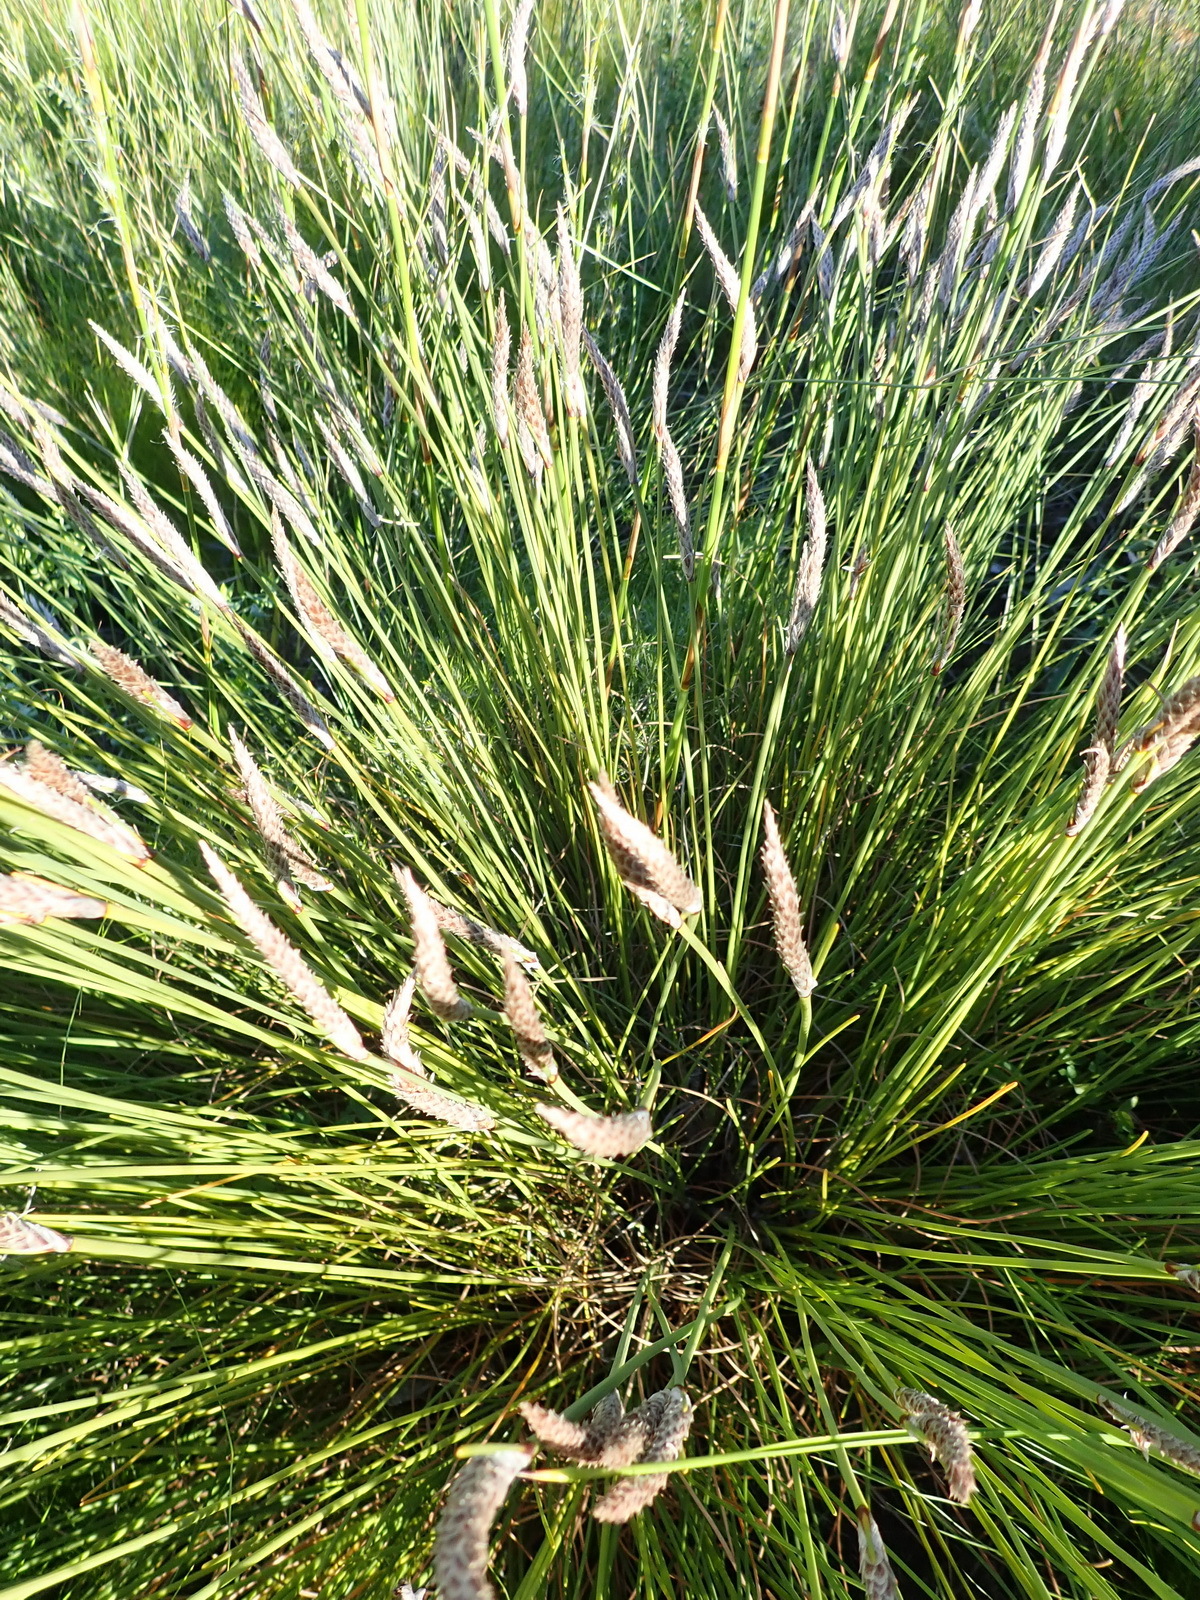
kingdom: Plantae
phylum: Tracheophyta
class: Liliopsida
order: Poales
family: Cyperaceae
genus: Ficinia
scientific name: Ficinia deusta
